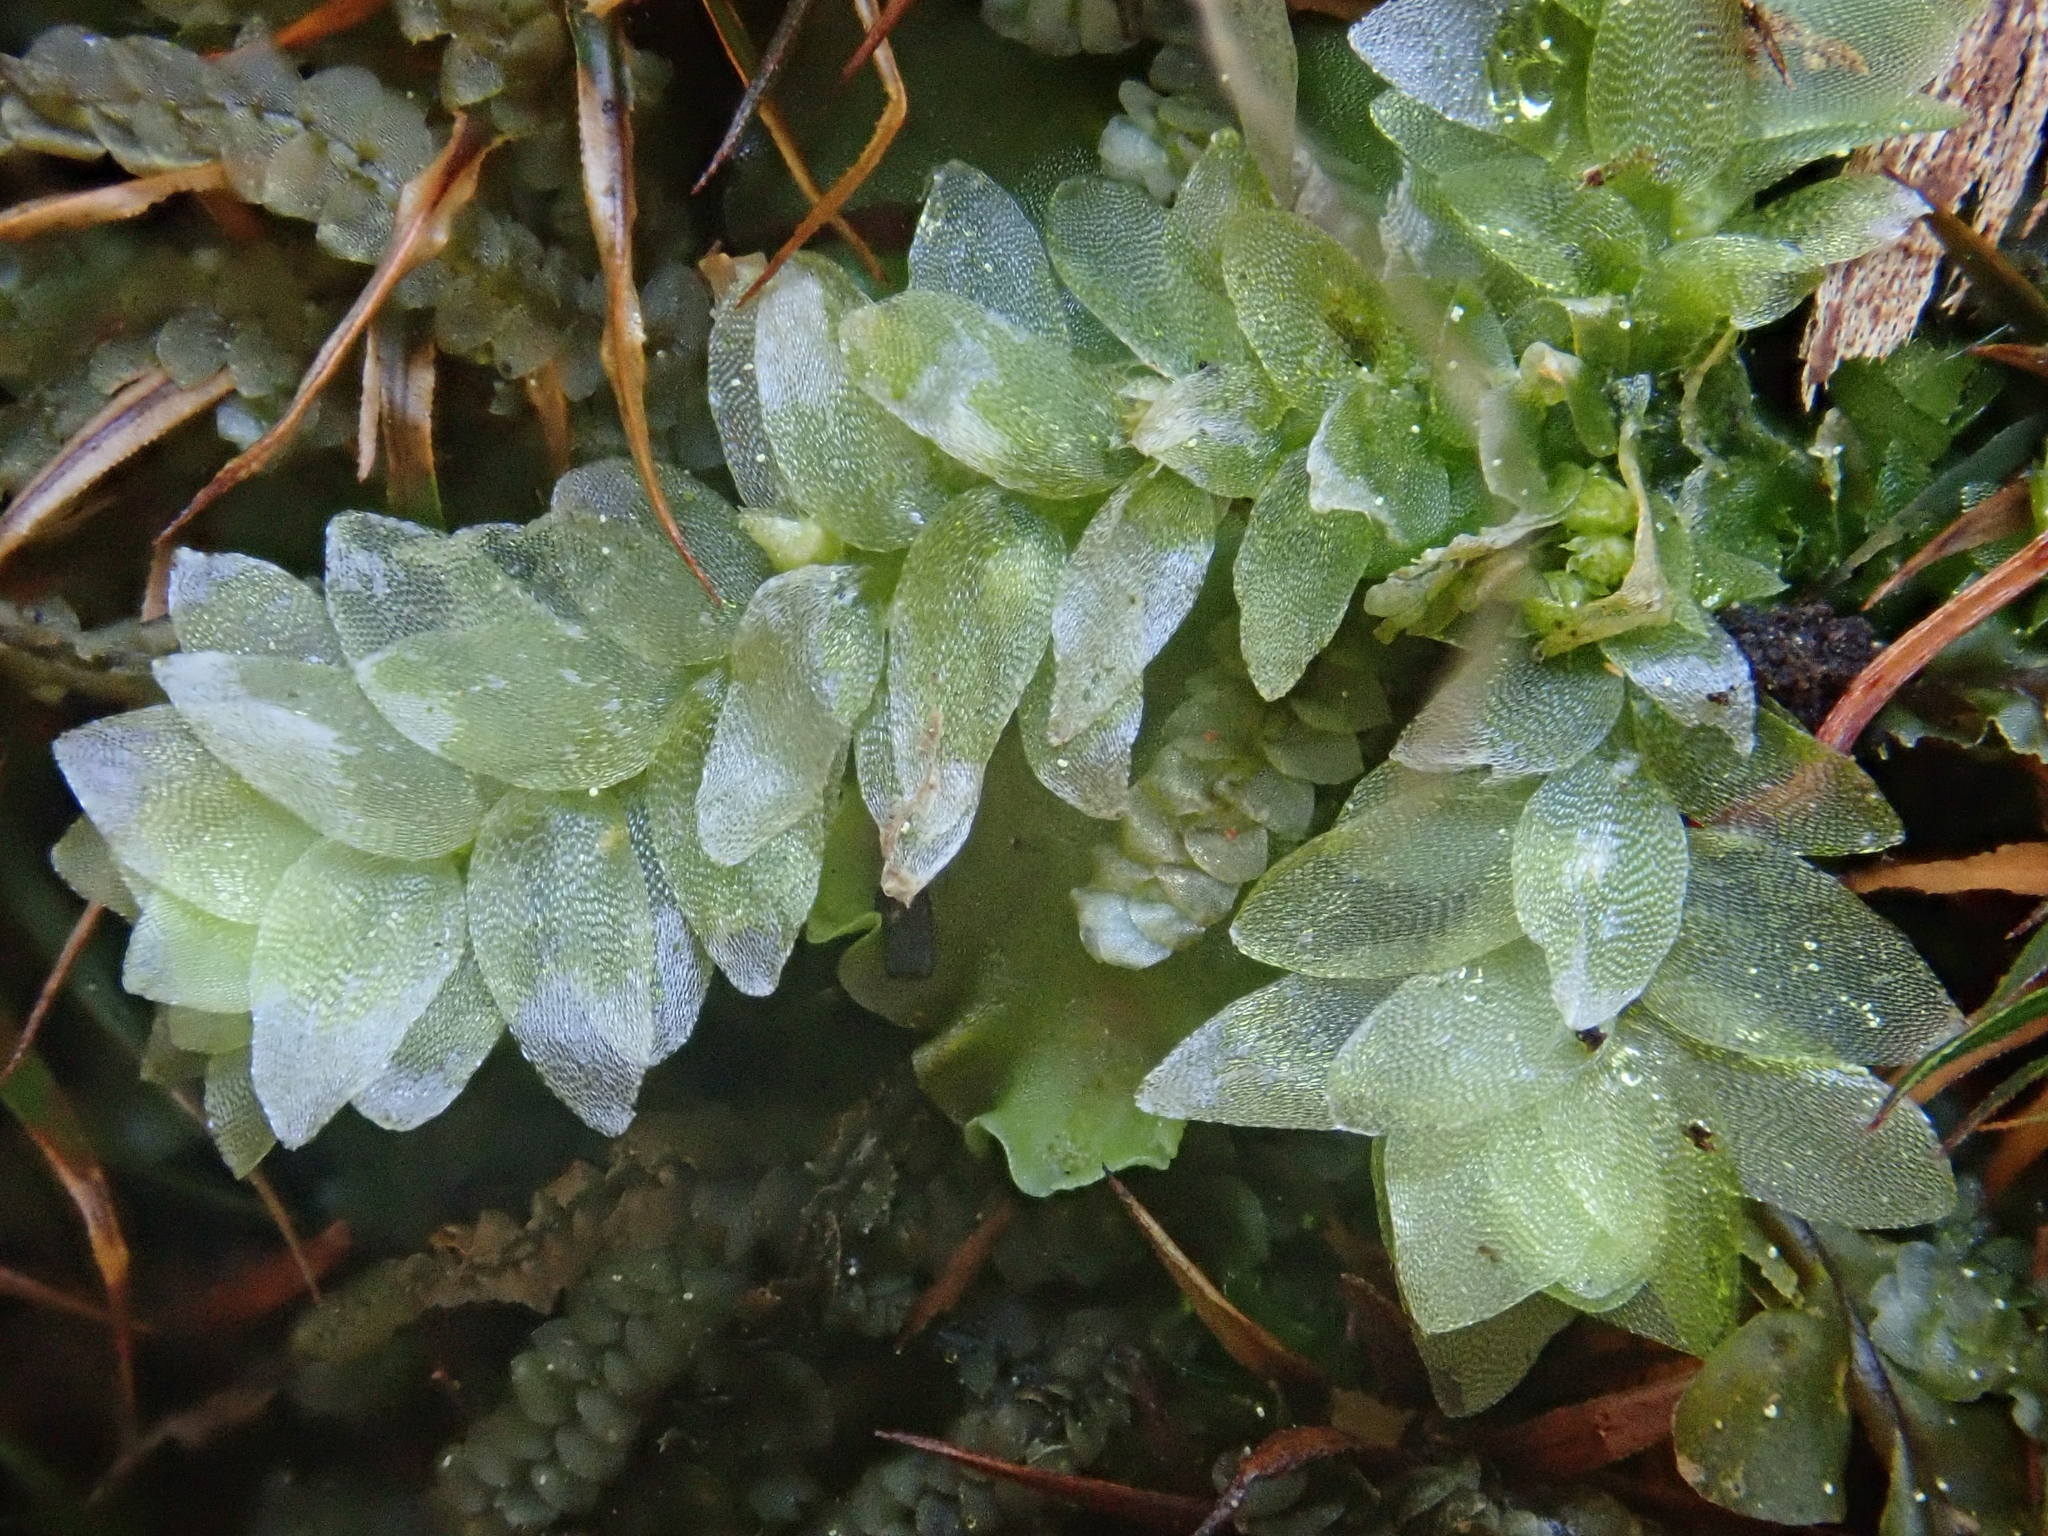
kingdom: Plantae
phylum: Bryophyta
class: Bryopsida
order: Hookeriales
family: Hookeriaceae
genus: Hookeria
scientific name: Hookeria lucens
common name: Shining hookeria
